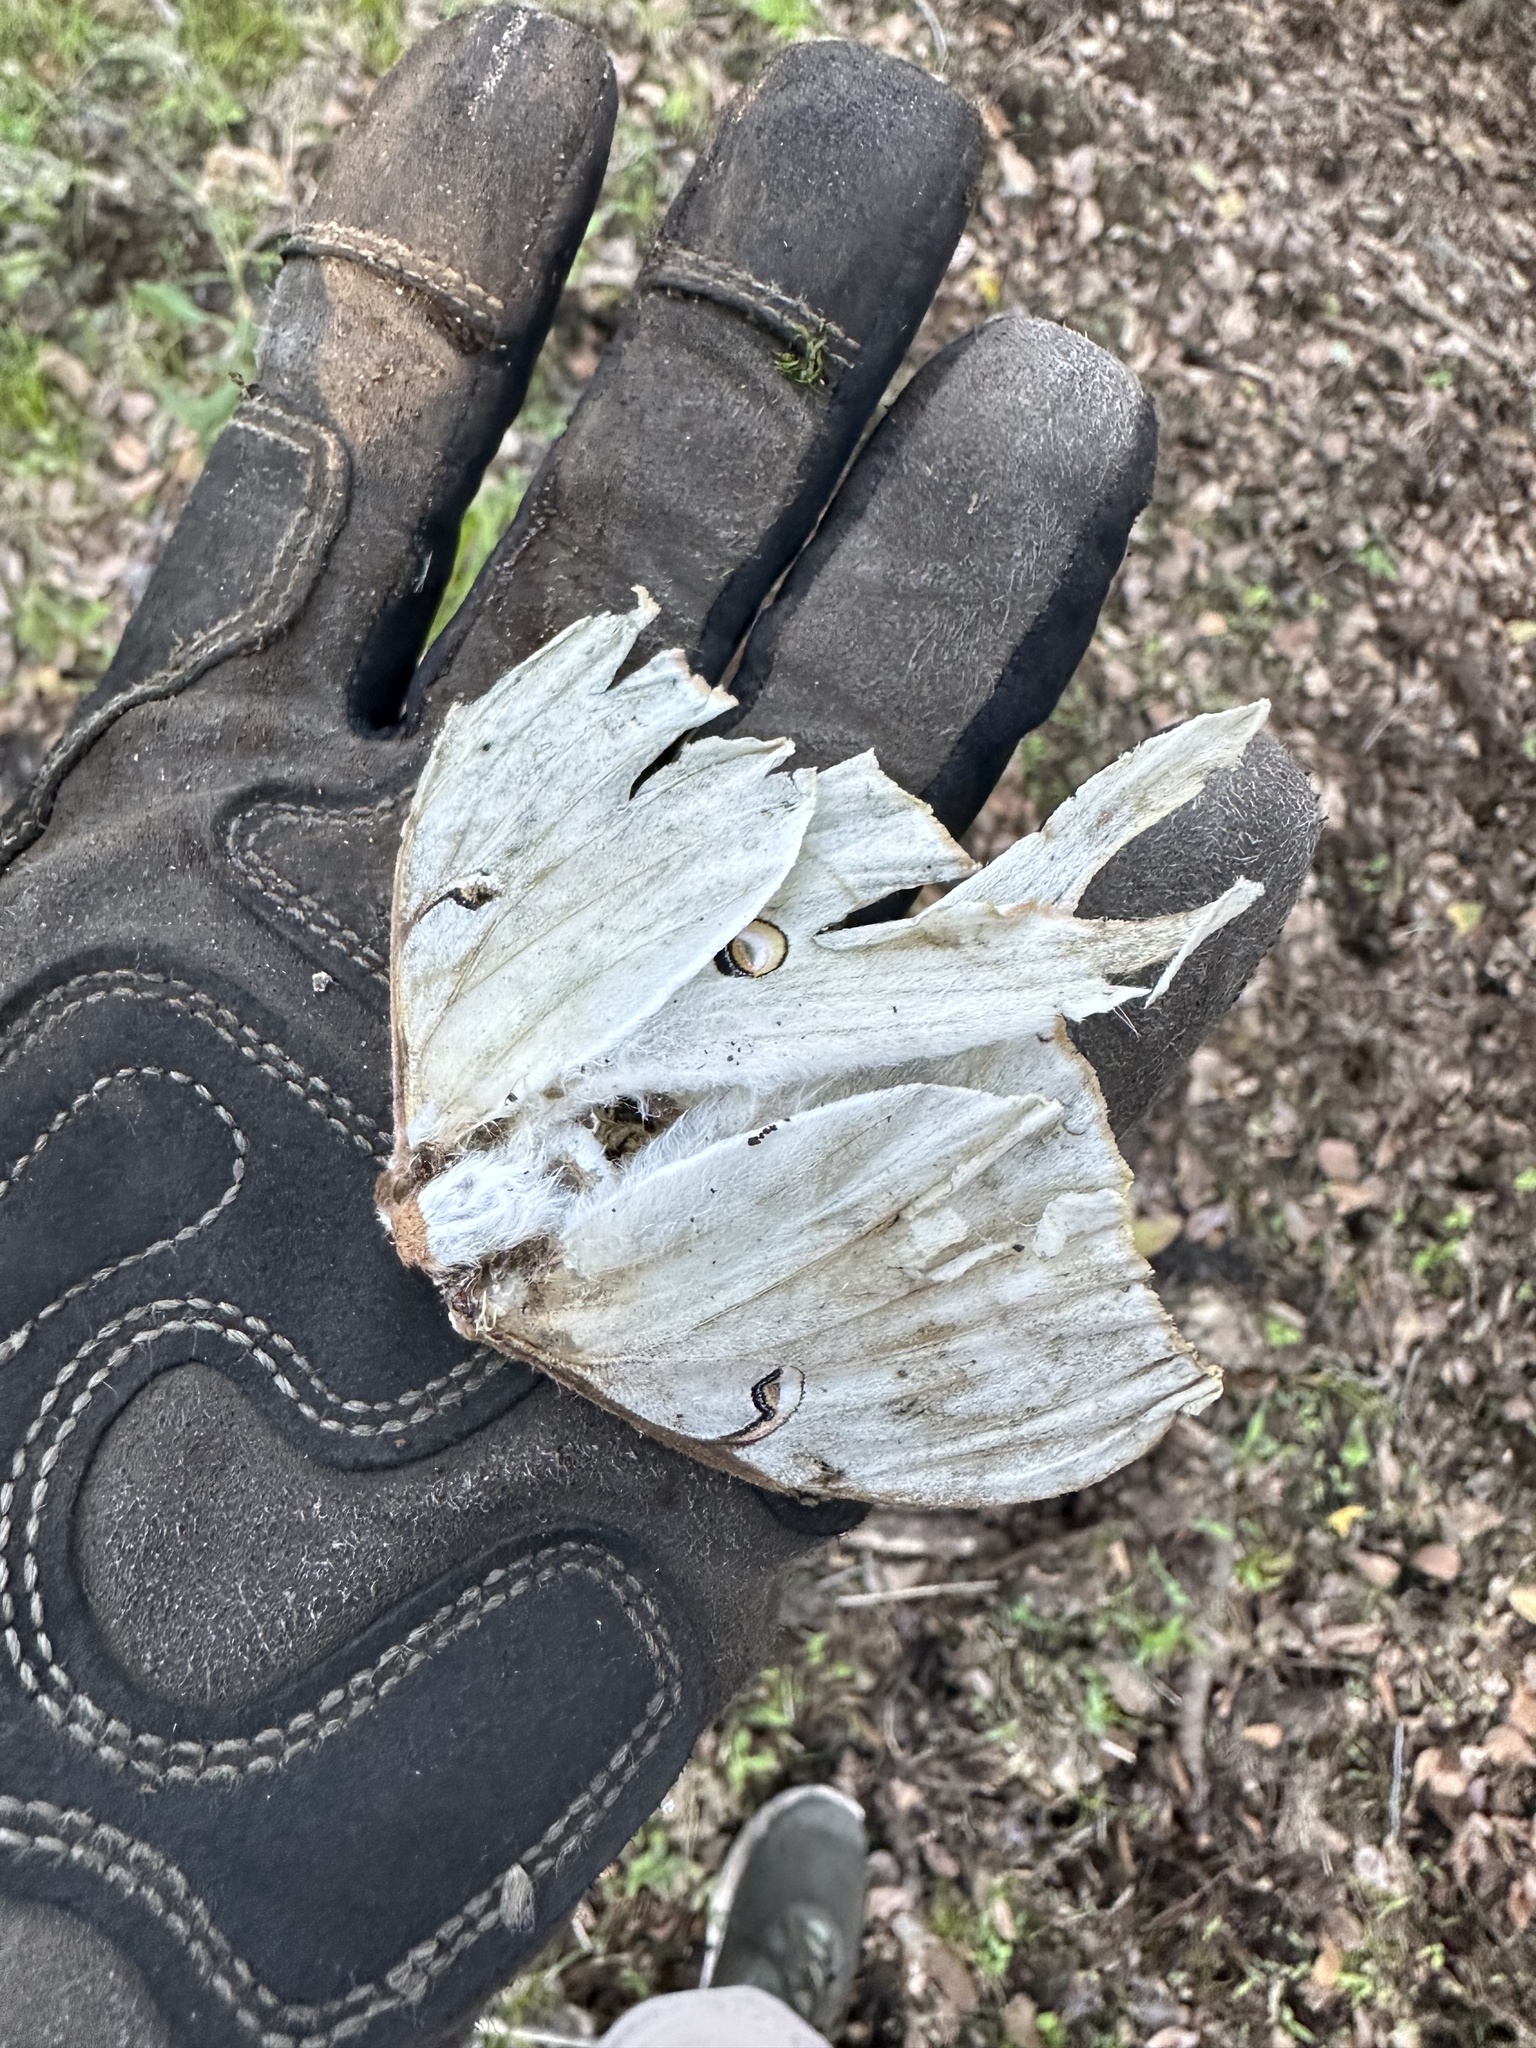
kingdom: Animalia
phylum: Arthropoda
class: Insecta
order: Lepidoptera
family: Saturniidae
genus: Actias
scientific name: Actias luna
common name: Luna moth
